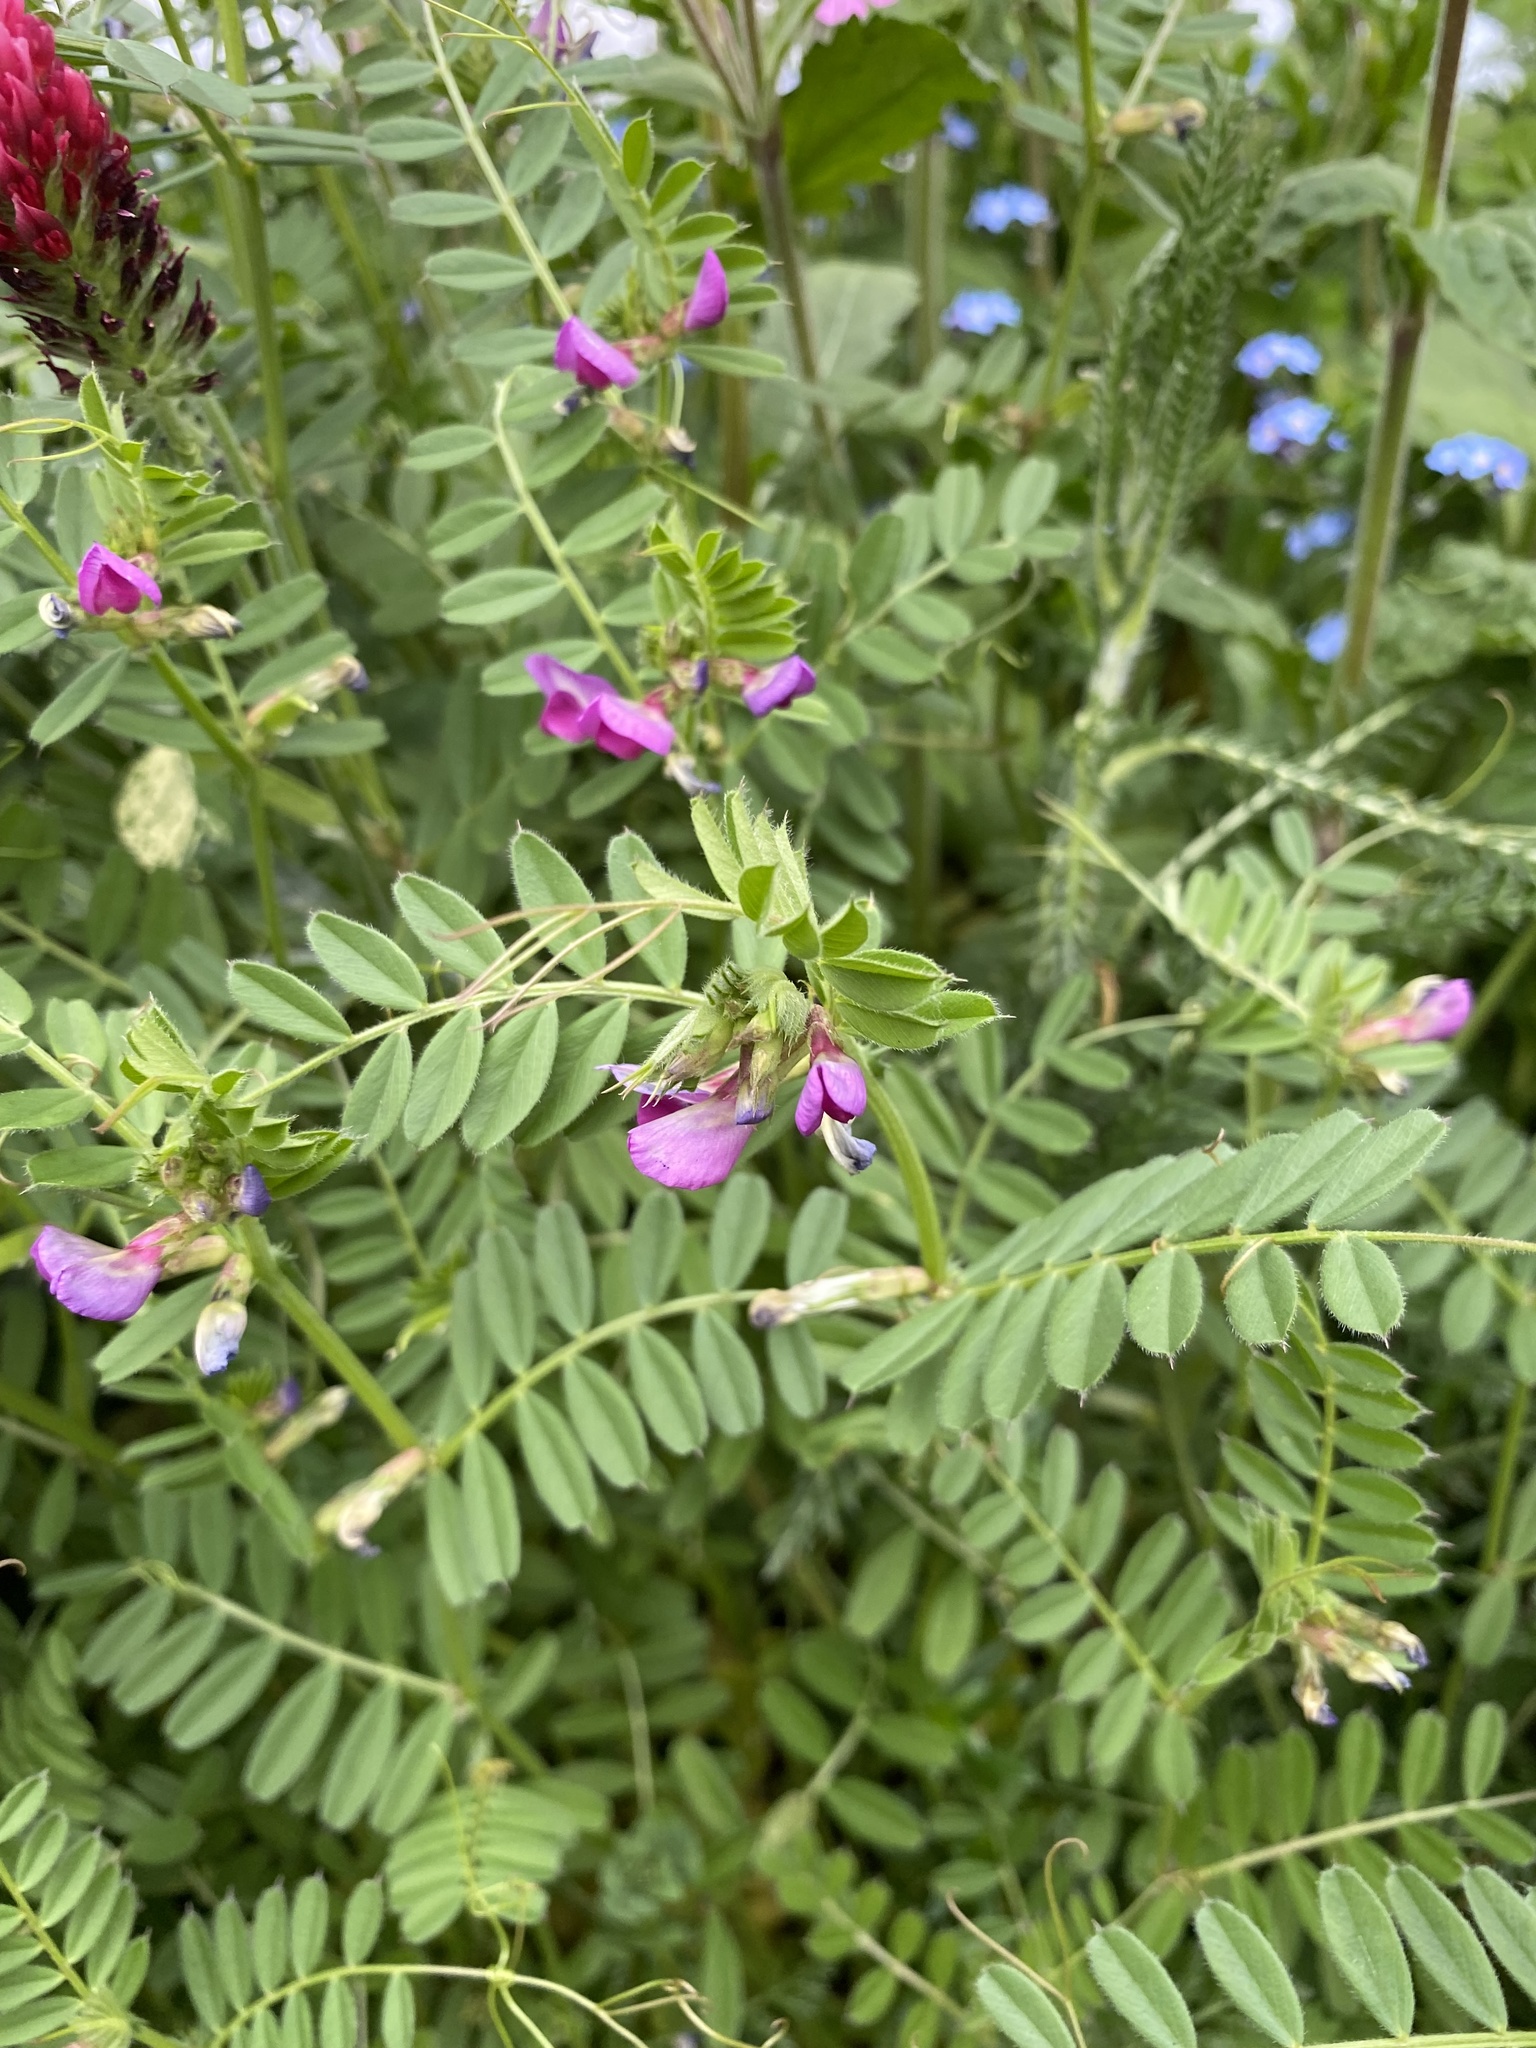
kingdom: Plantae
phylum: Tracheophyta
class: Magnoliopsida
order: Fabales
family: Fabaceae
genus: Vicia
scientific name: Vicia sativa
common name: Garden vetch
